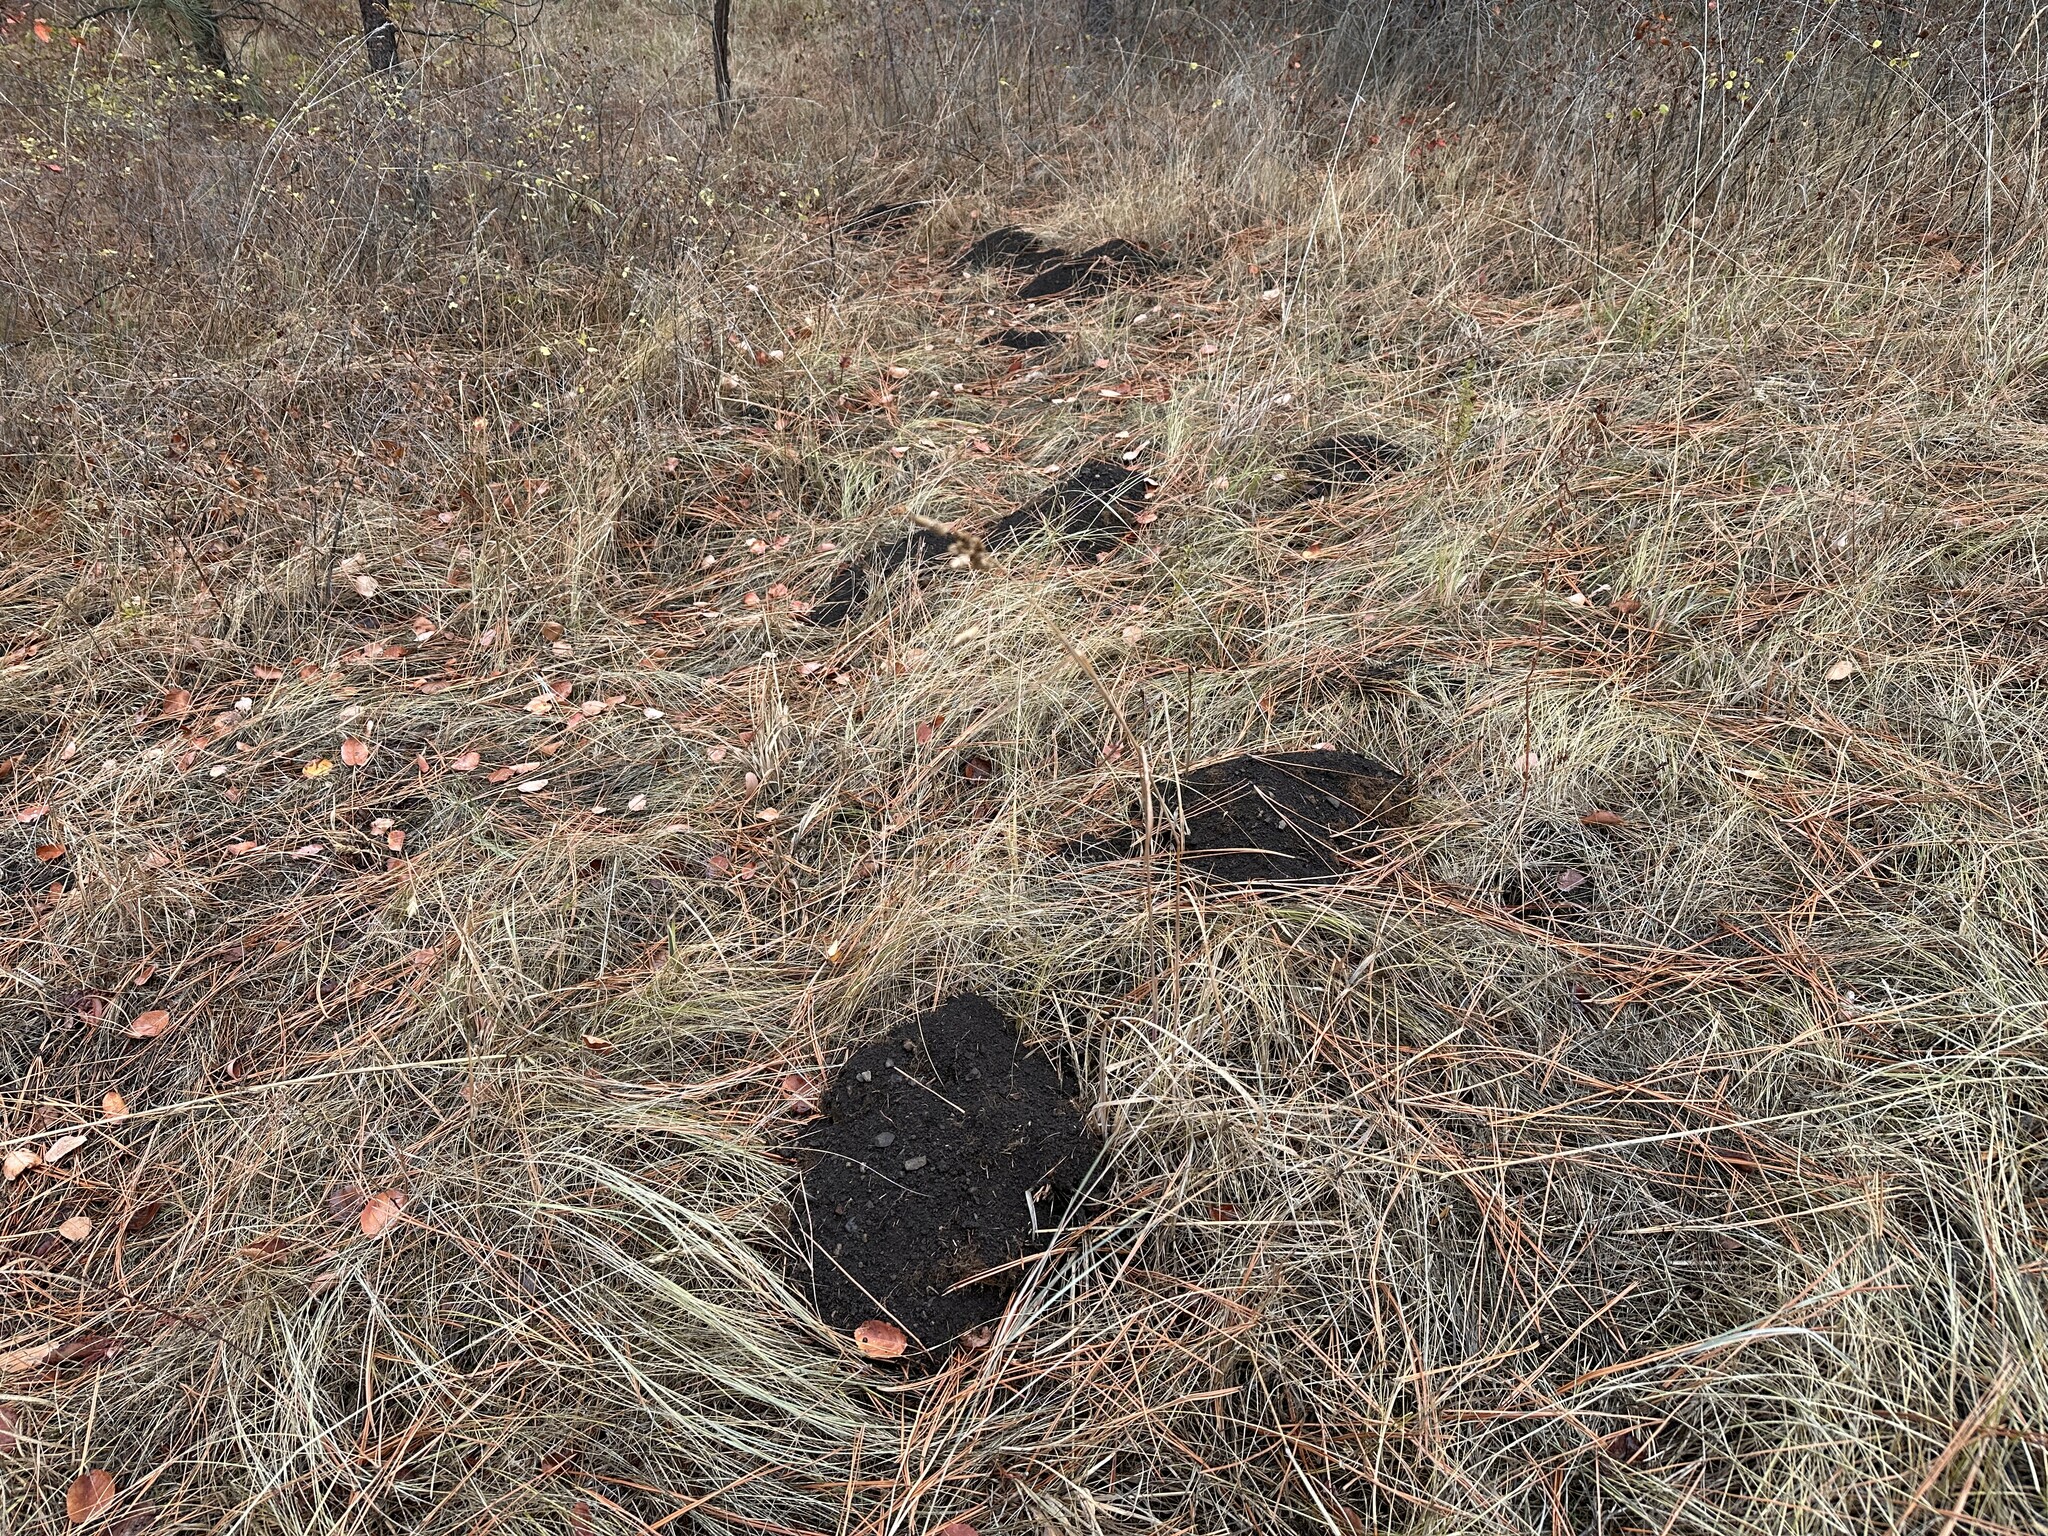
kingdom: Animalia
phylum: Chordata
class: Mammalia
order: Rodentia
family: Geomyidae
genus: Thomomys
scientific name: Thomomys talpoides
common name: Northern pocket gopher
